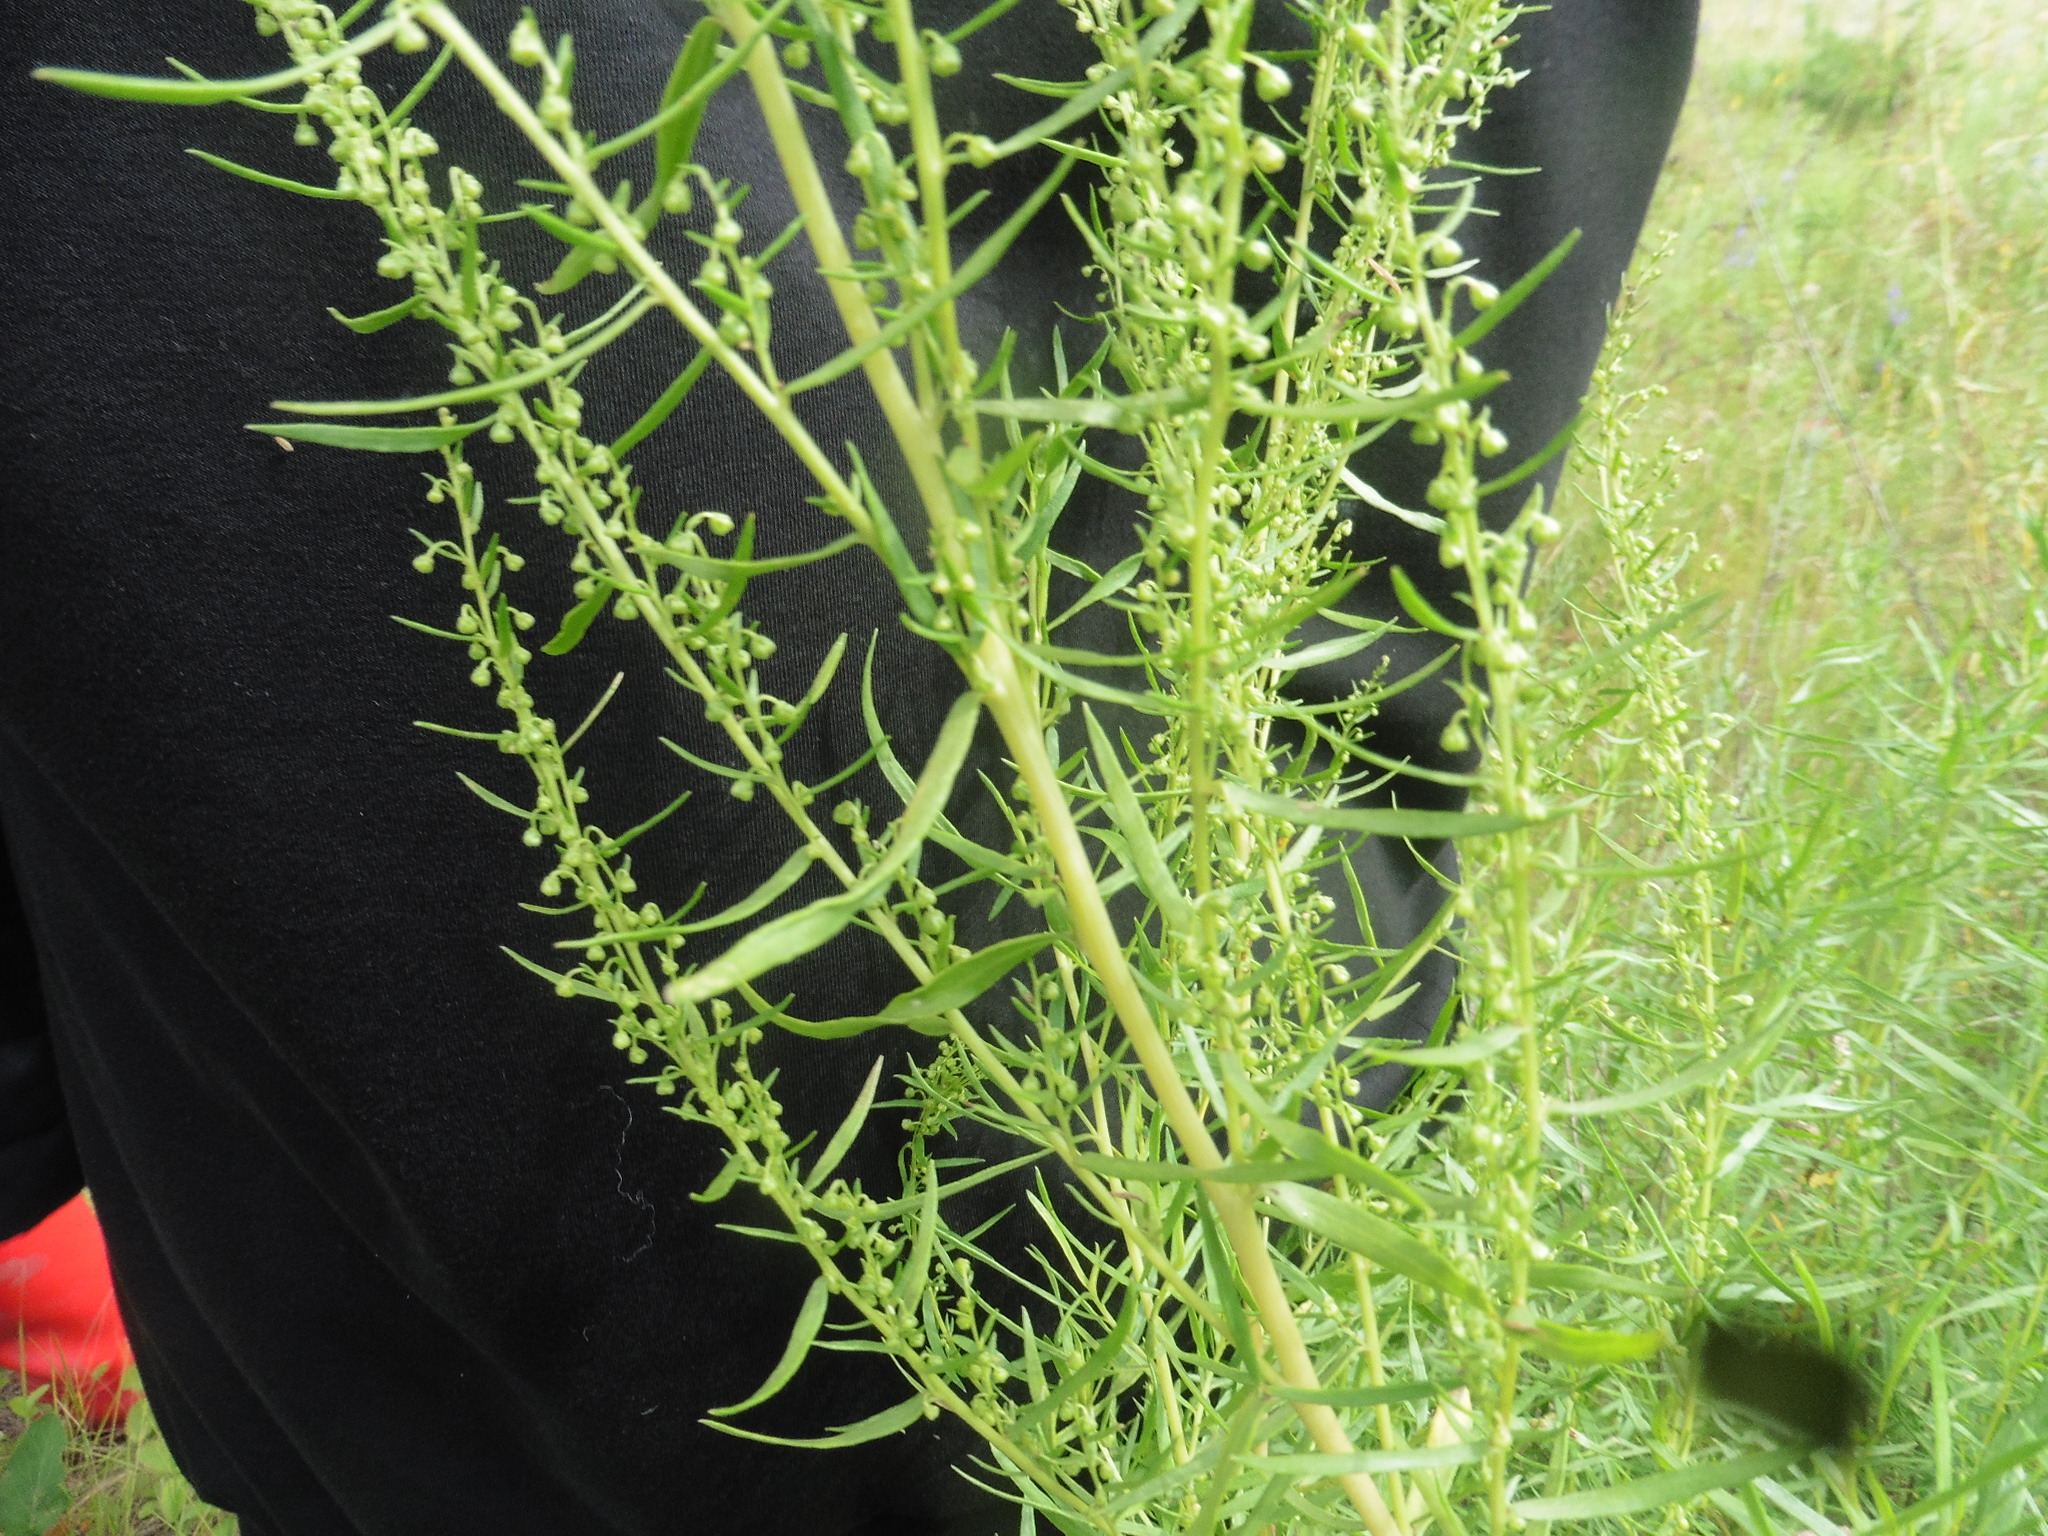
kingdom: Plantae
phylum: Tracheophyta
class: Magnoliopsida
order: Asterales
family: Asteraceae
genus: Artemisia
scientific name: Artemisia dracunculus
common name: Tarragon
